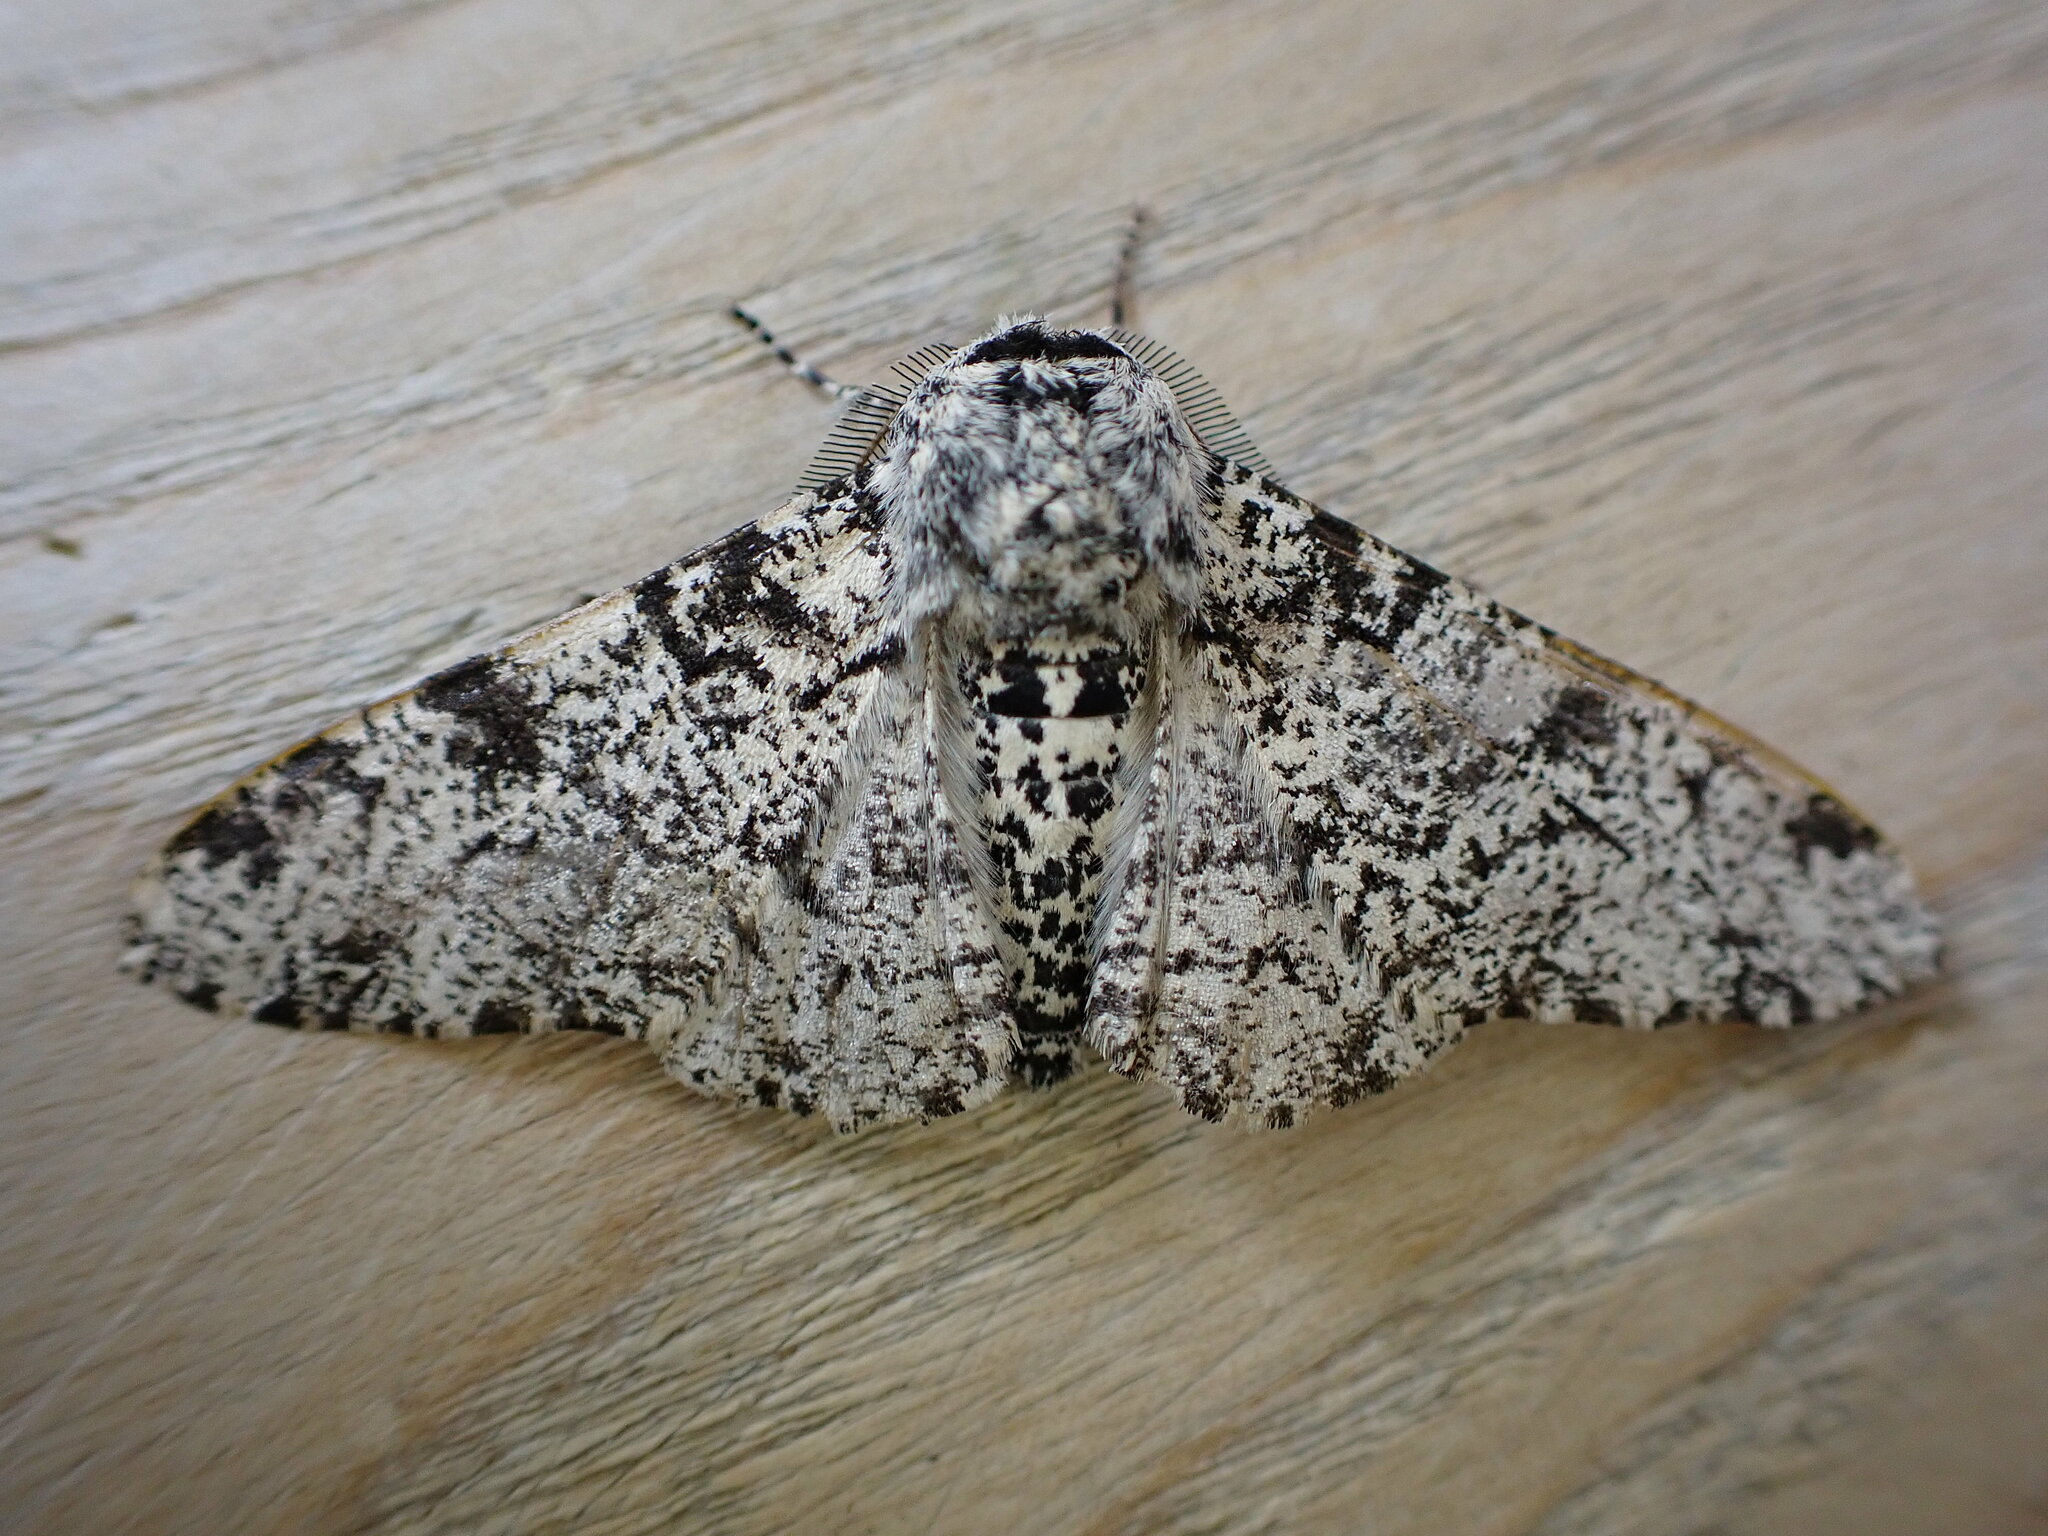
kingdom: Animalia
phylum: Arthropoda
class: Insecta
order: Lepidoptera
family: Geometridae
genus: Biston
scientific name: Biston betularia
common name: Peppered moth
